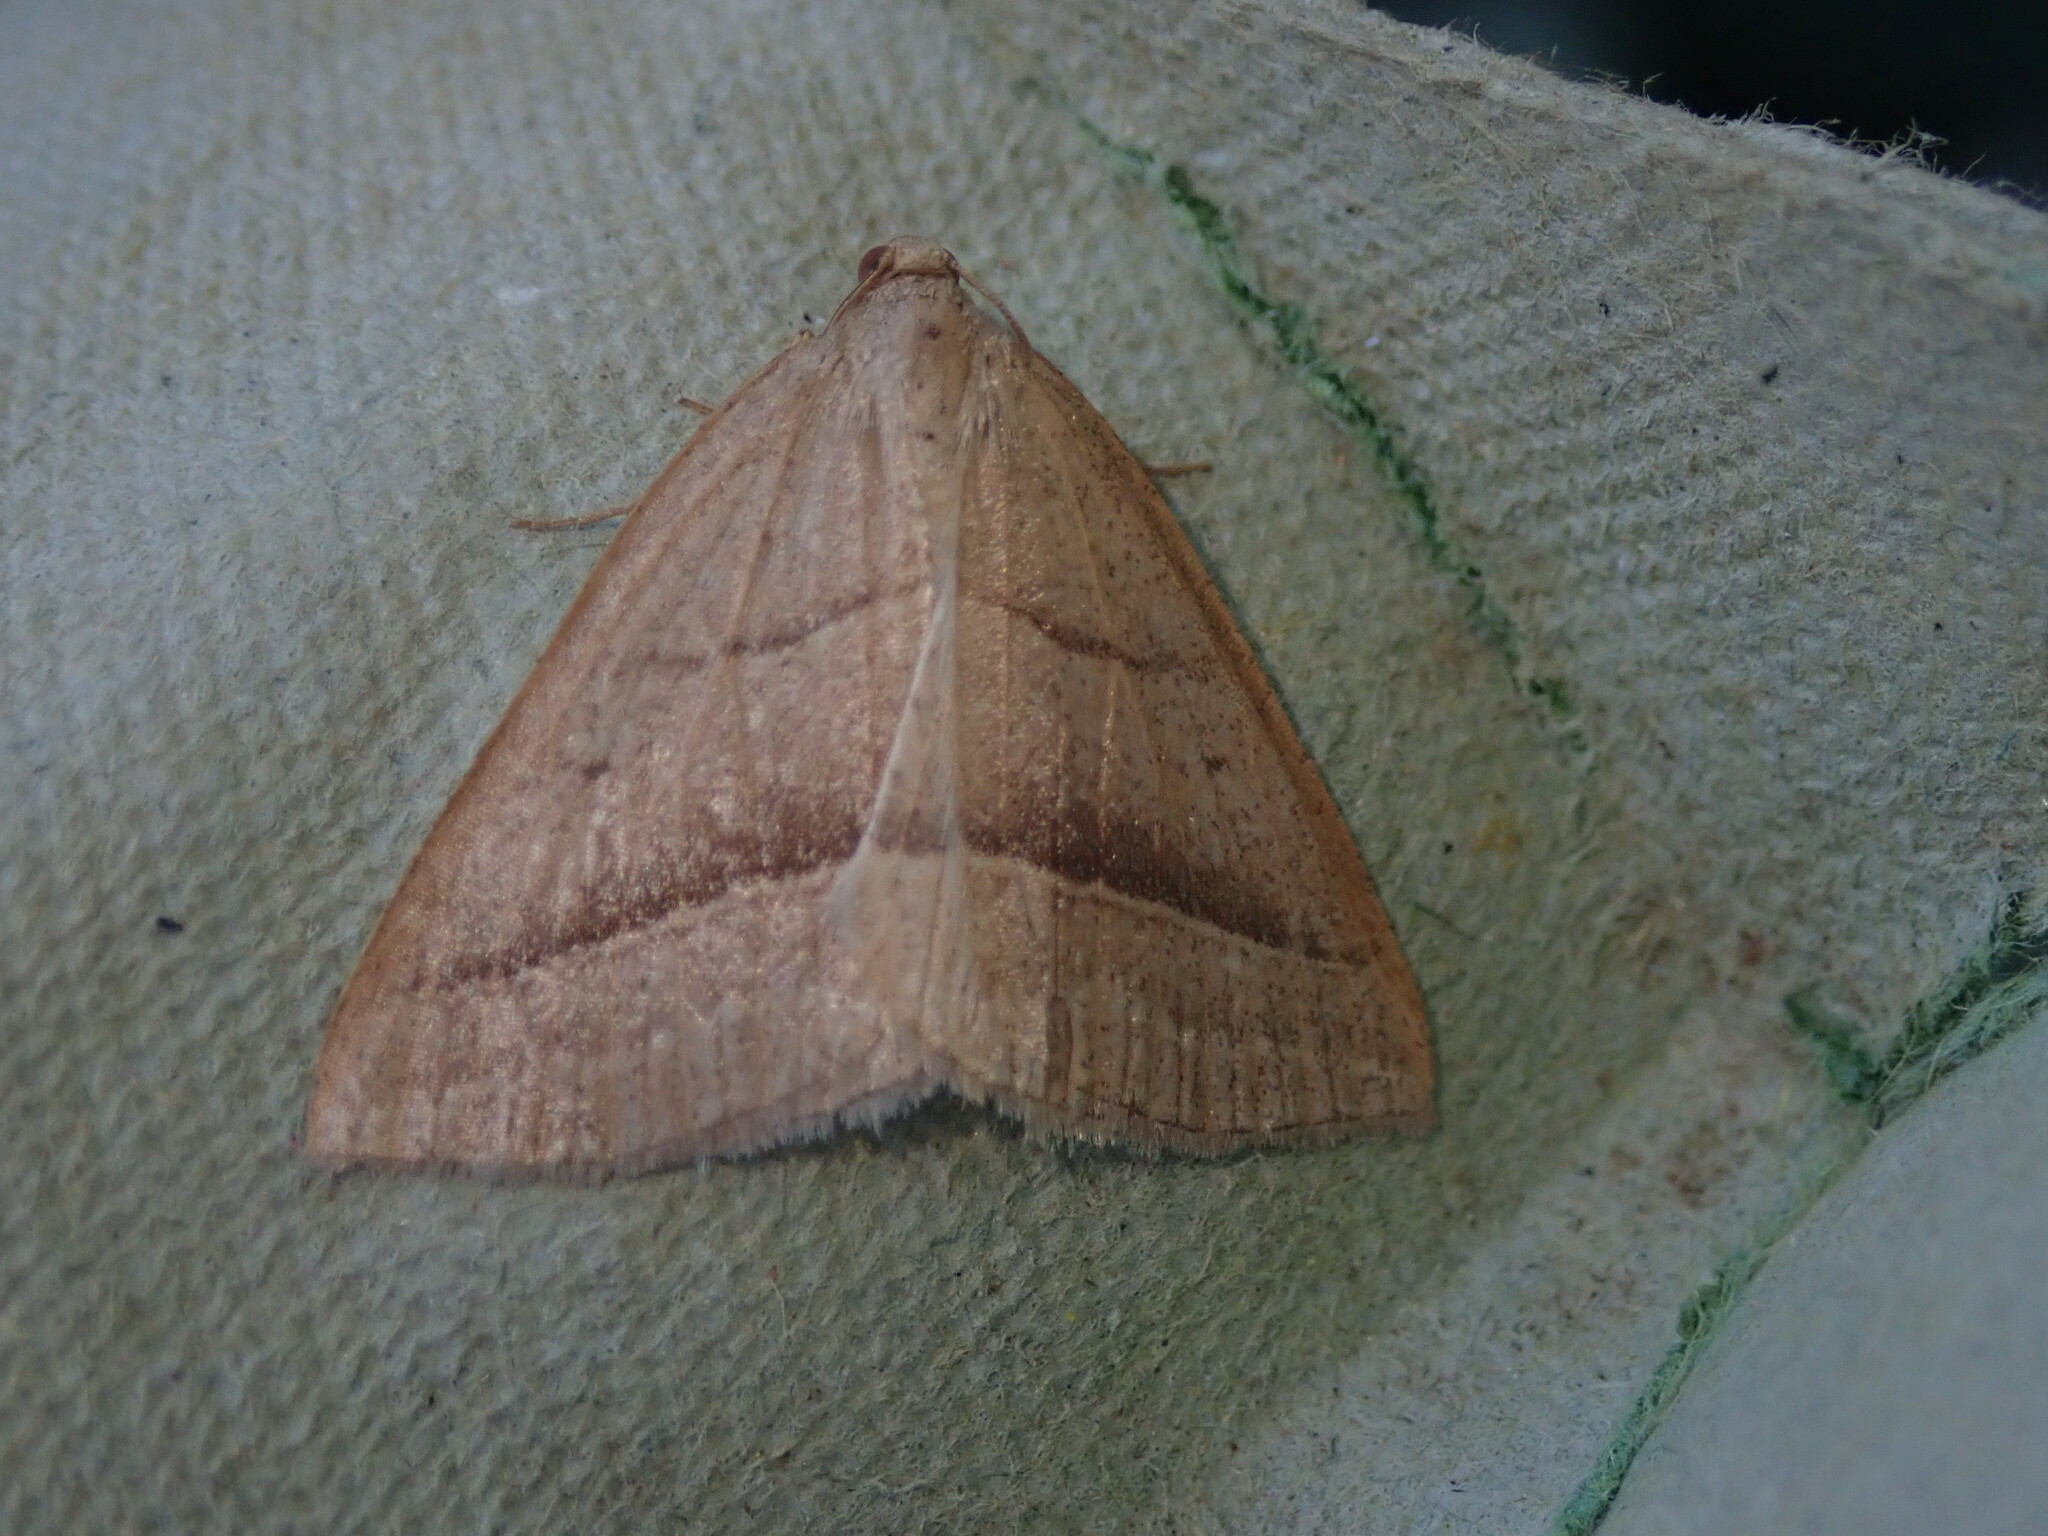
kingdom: Animalia
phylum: Arthropoda
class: Insecta
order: Lepidoptera
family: Pterophoridae
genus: Pterophorus
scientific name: Pterophorus Petrophora chlorosata
